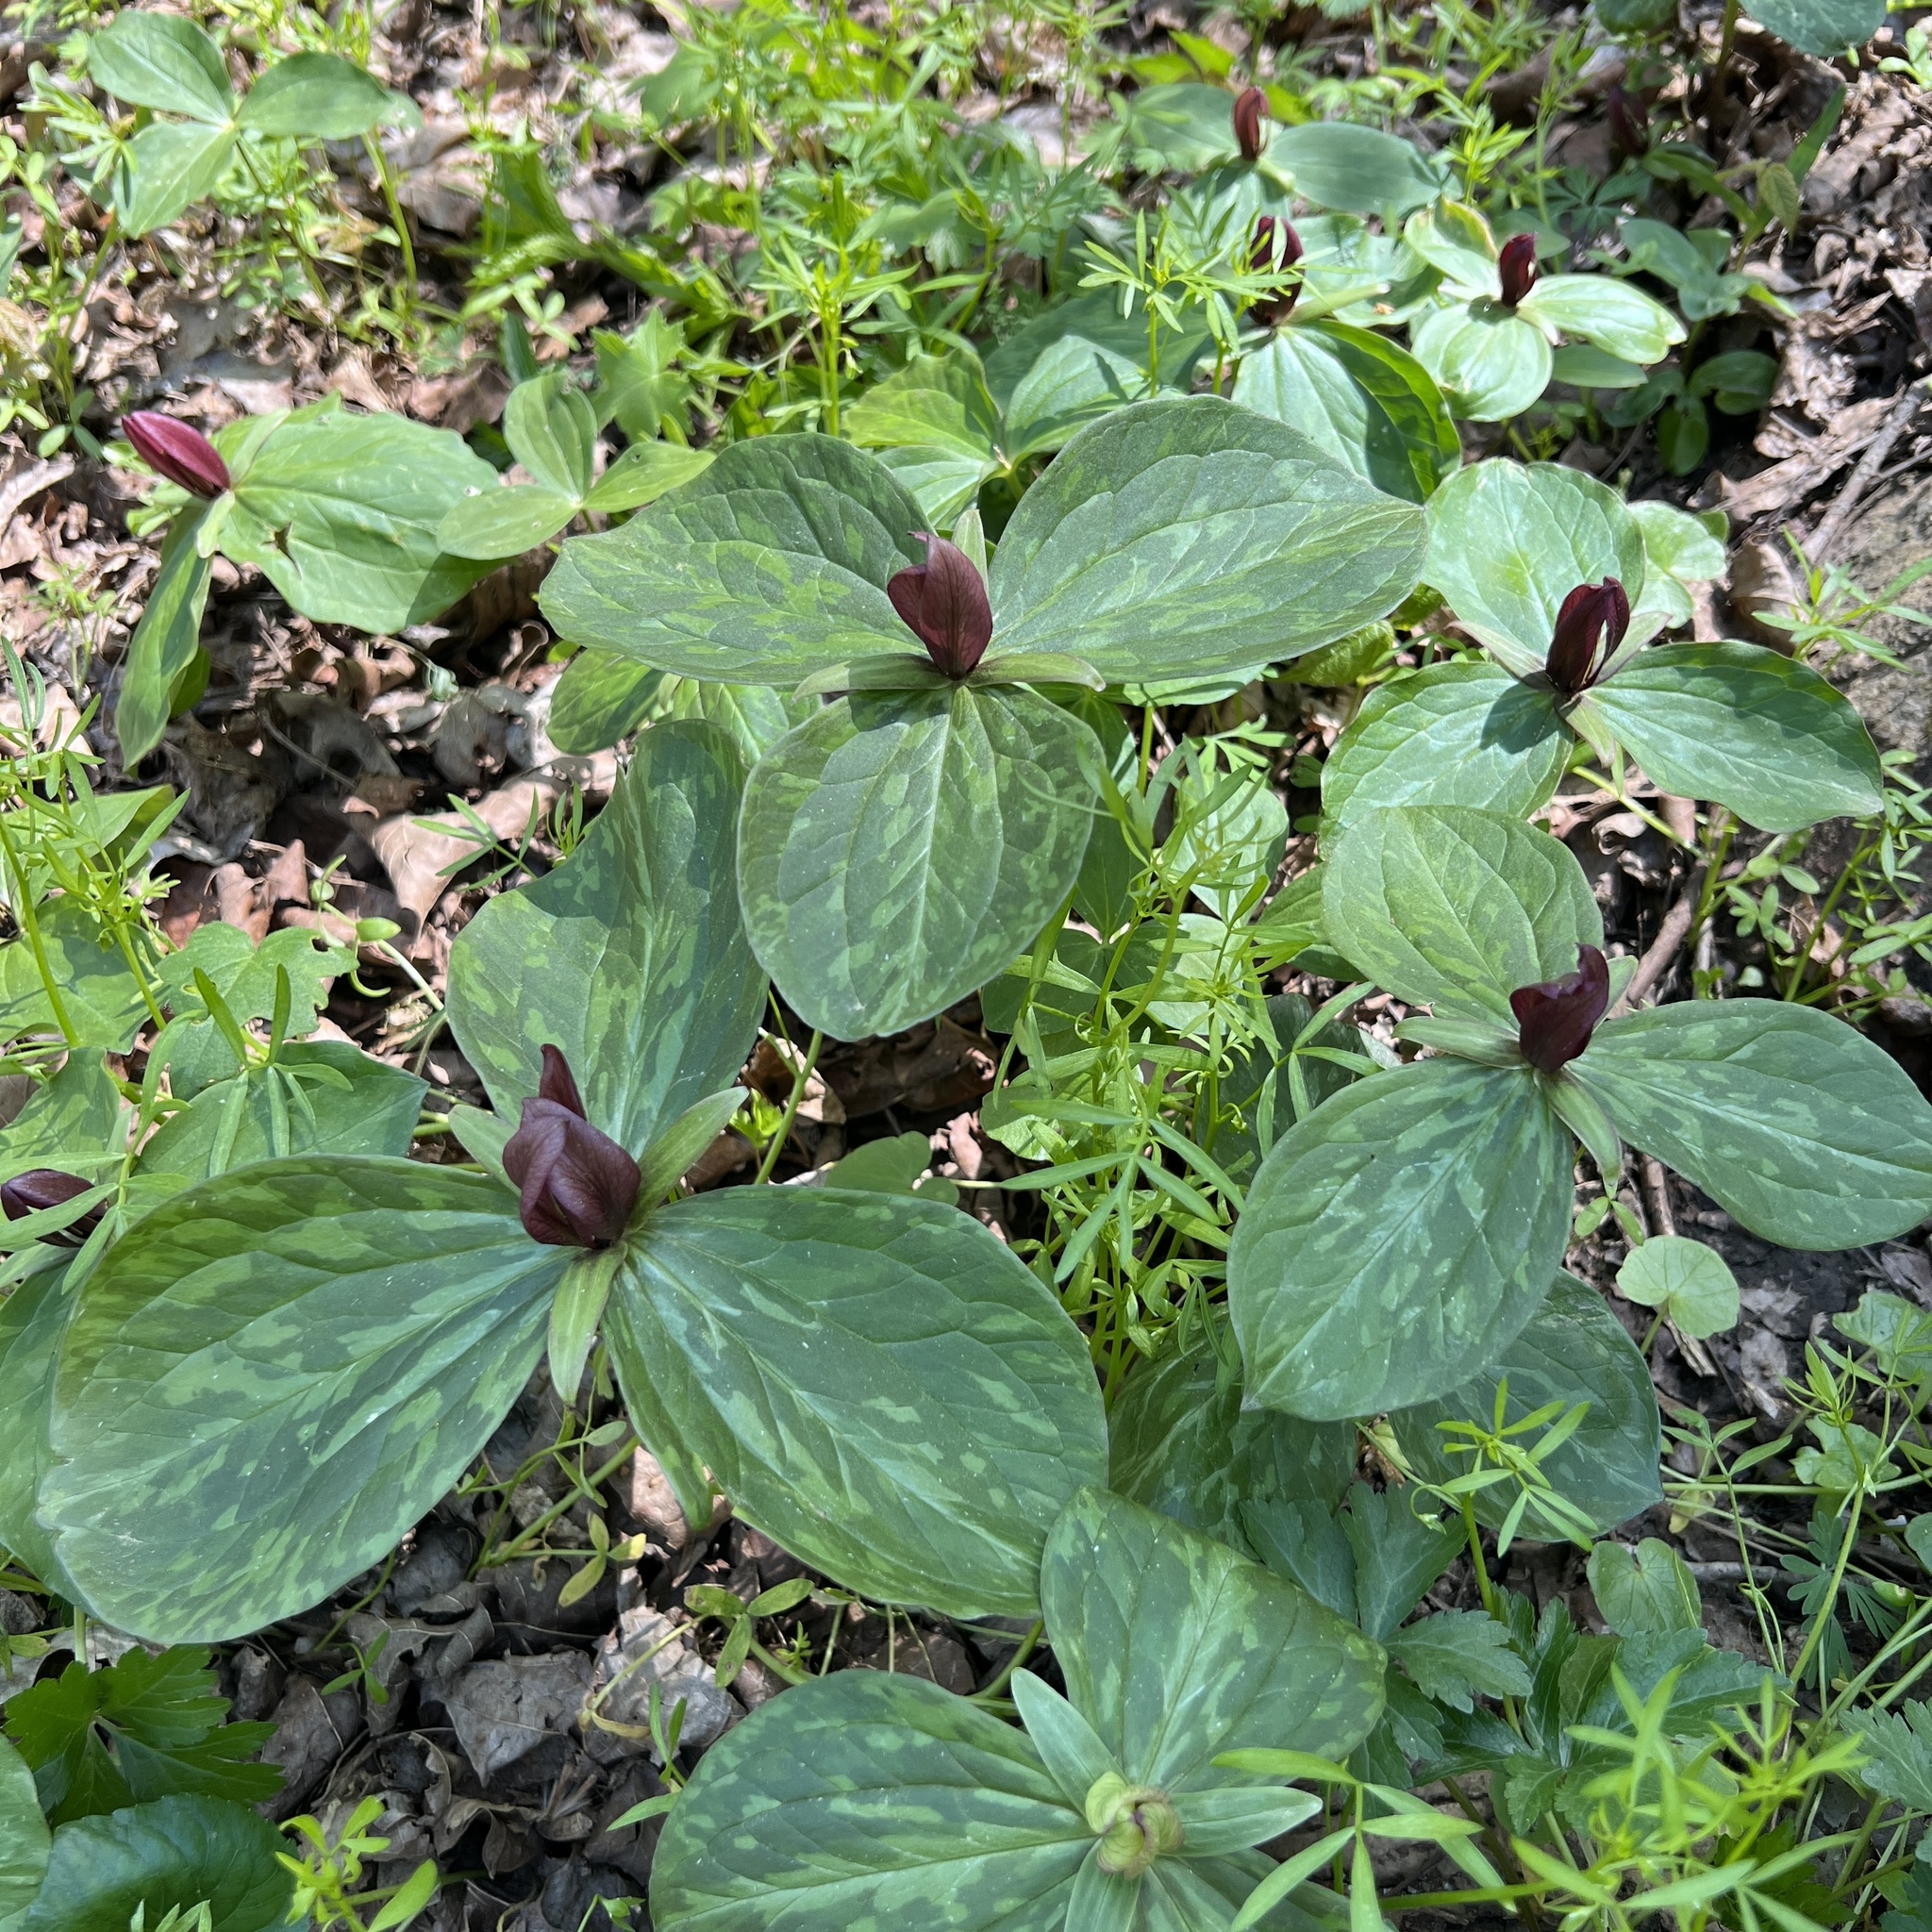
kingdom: Plantae
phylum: Tracheophyta
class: Liliopsida
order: Liliales
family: Melanthiaceae
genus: Trillium
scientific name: Trillium sessile
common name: Sessile trillium
